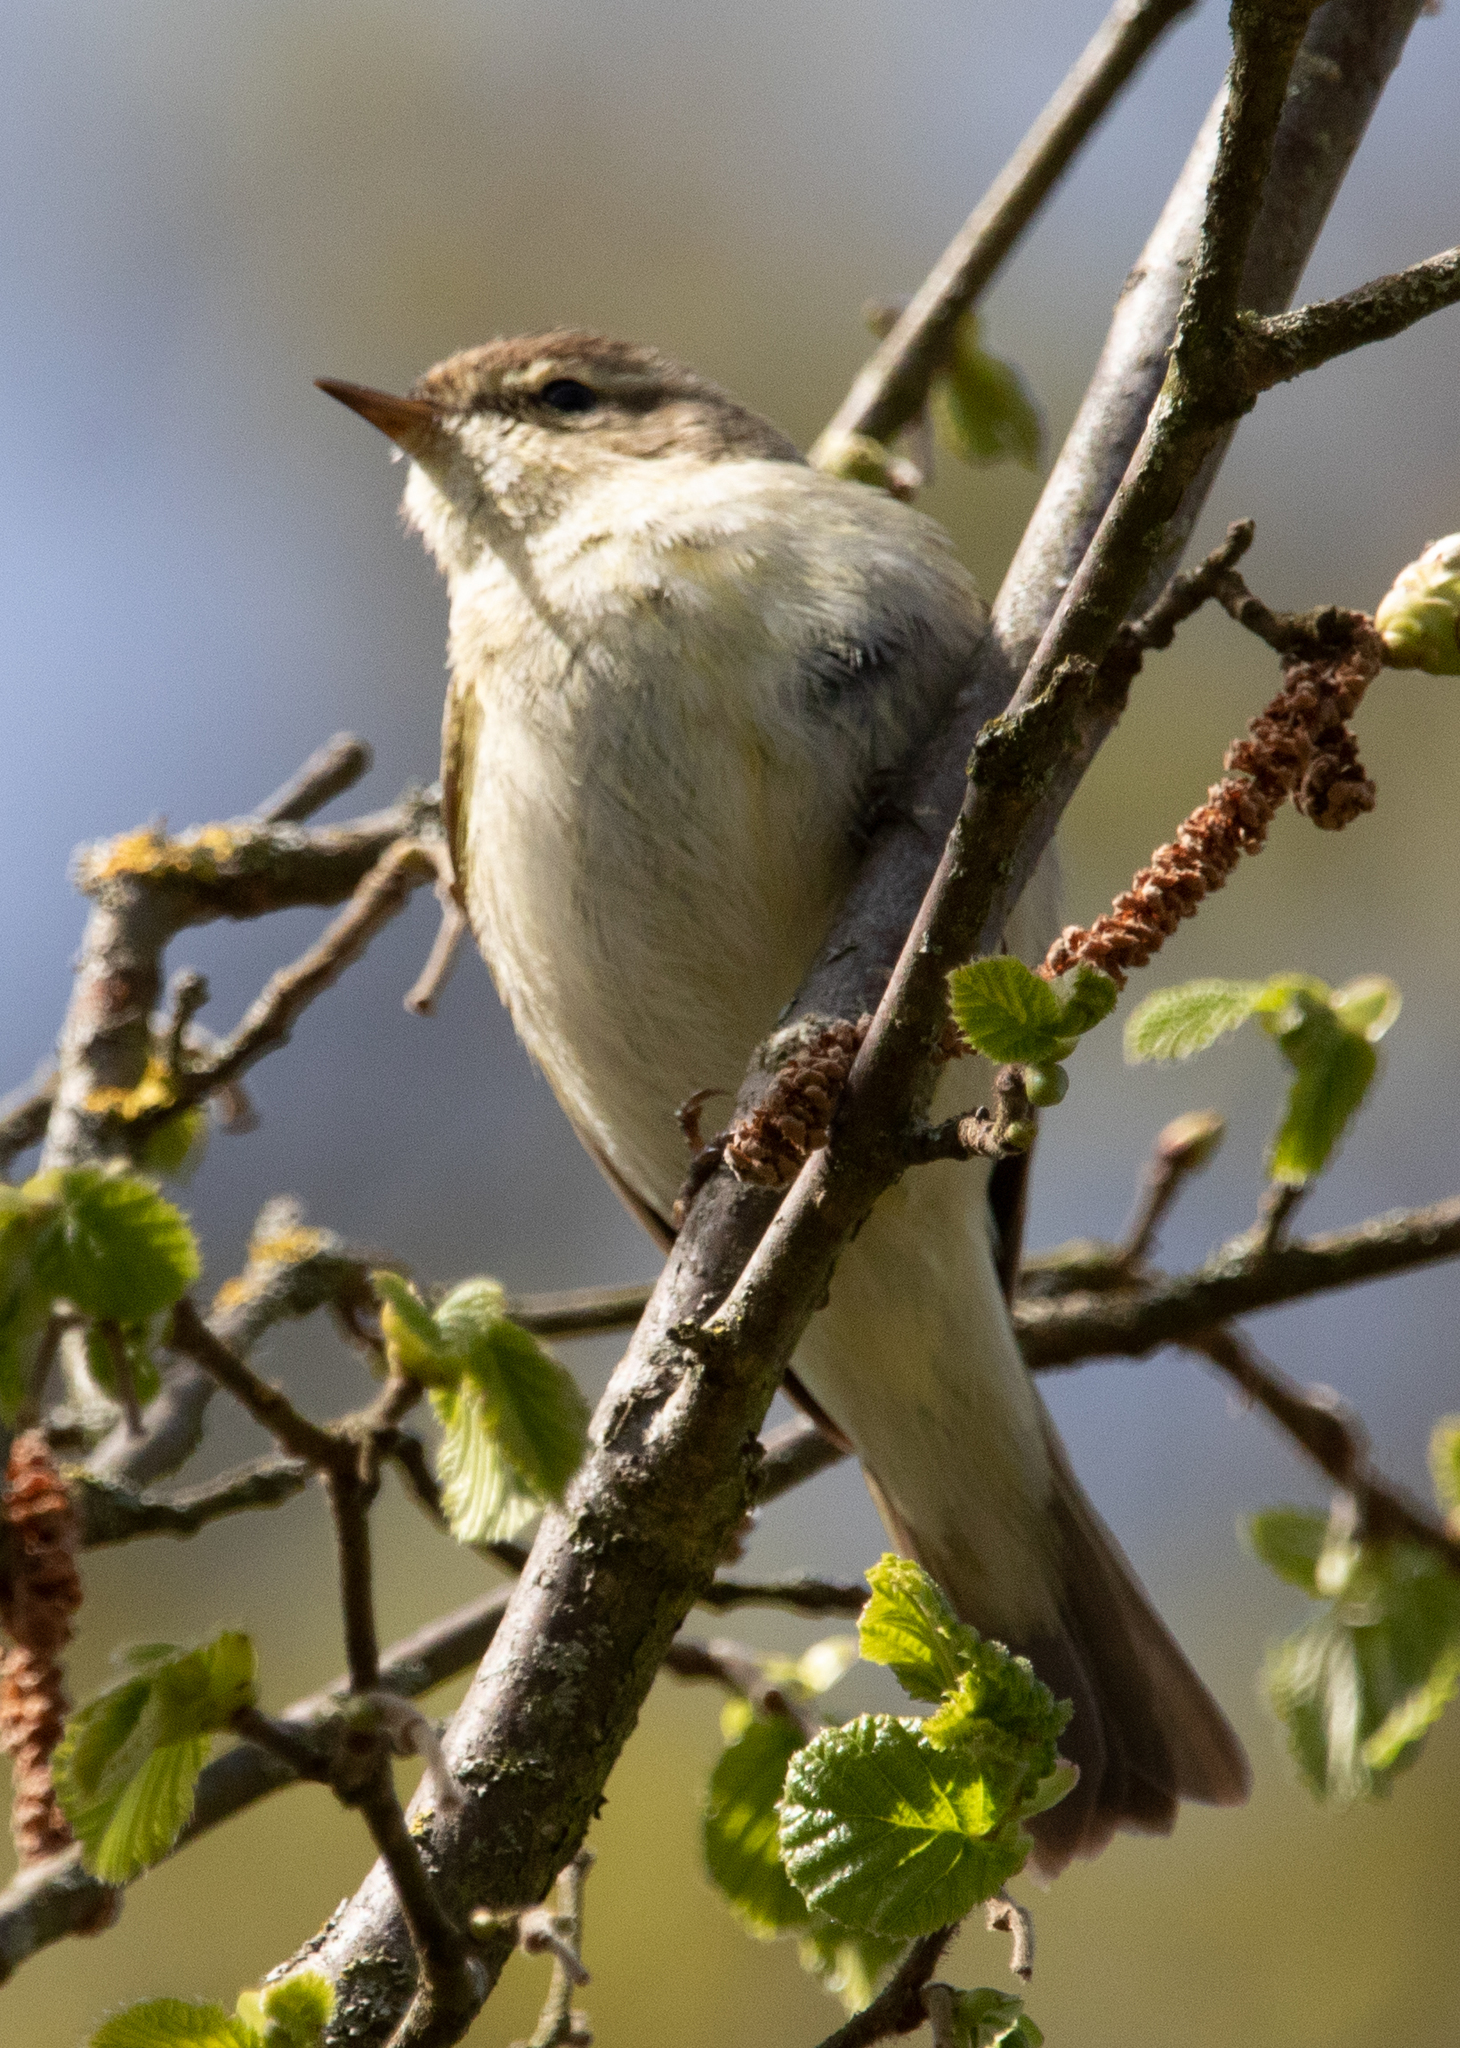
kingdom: Animalia
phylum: Chordata
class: Aves
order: Passeriformes
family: Phylloscopidae
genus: Phylloscopus
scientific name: Phylloscopus collybita
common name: Common chiffchaff
